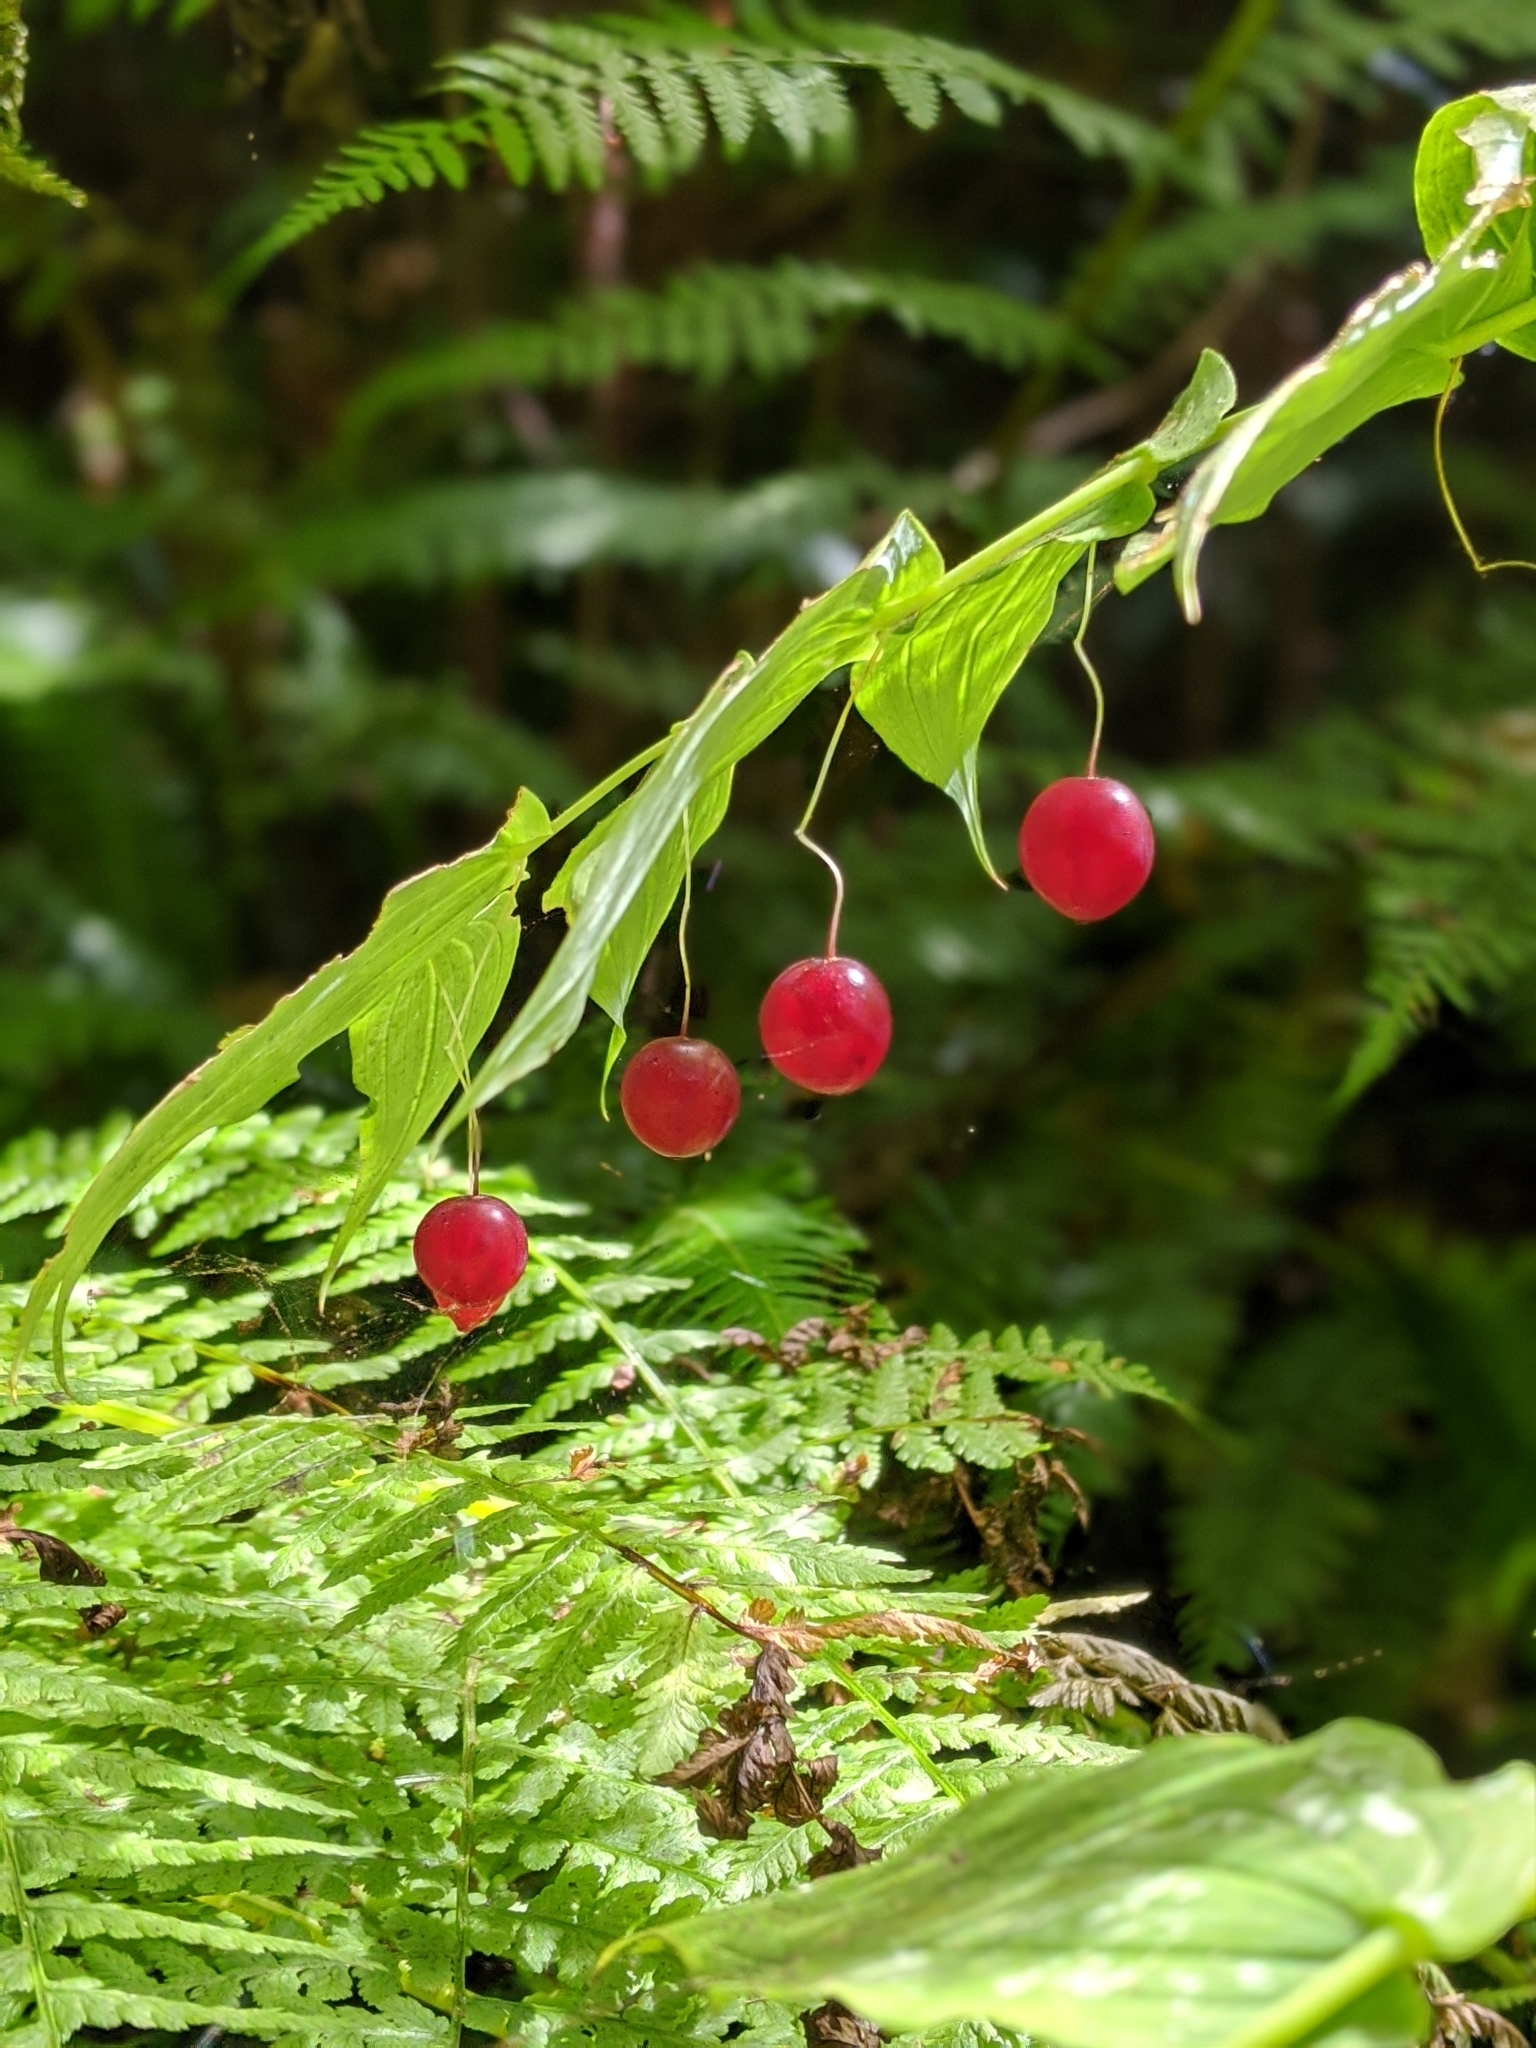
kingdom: Plantae
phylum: Tracheophyta
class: Liliopsida
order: Liliales
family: Liliaceae
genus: Streptopus
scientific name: Streptopus amplexifolius
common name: Clasp twisted stalk
